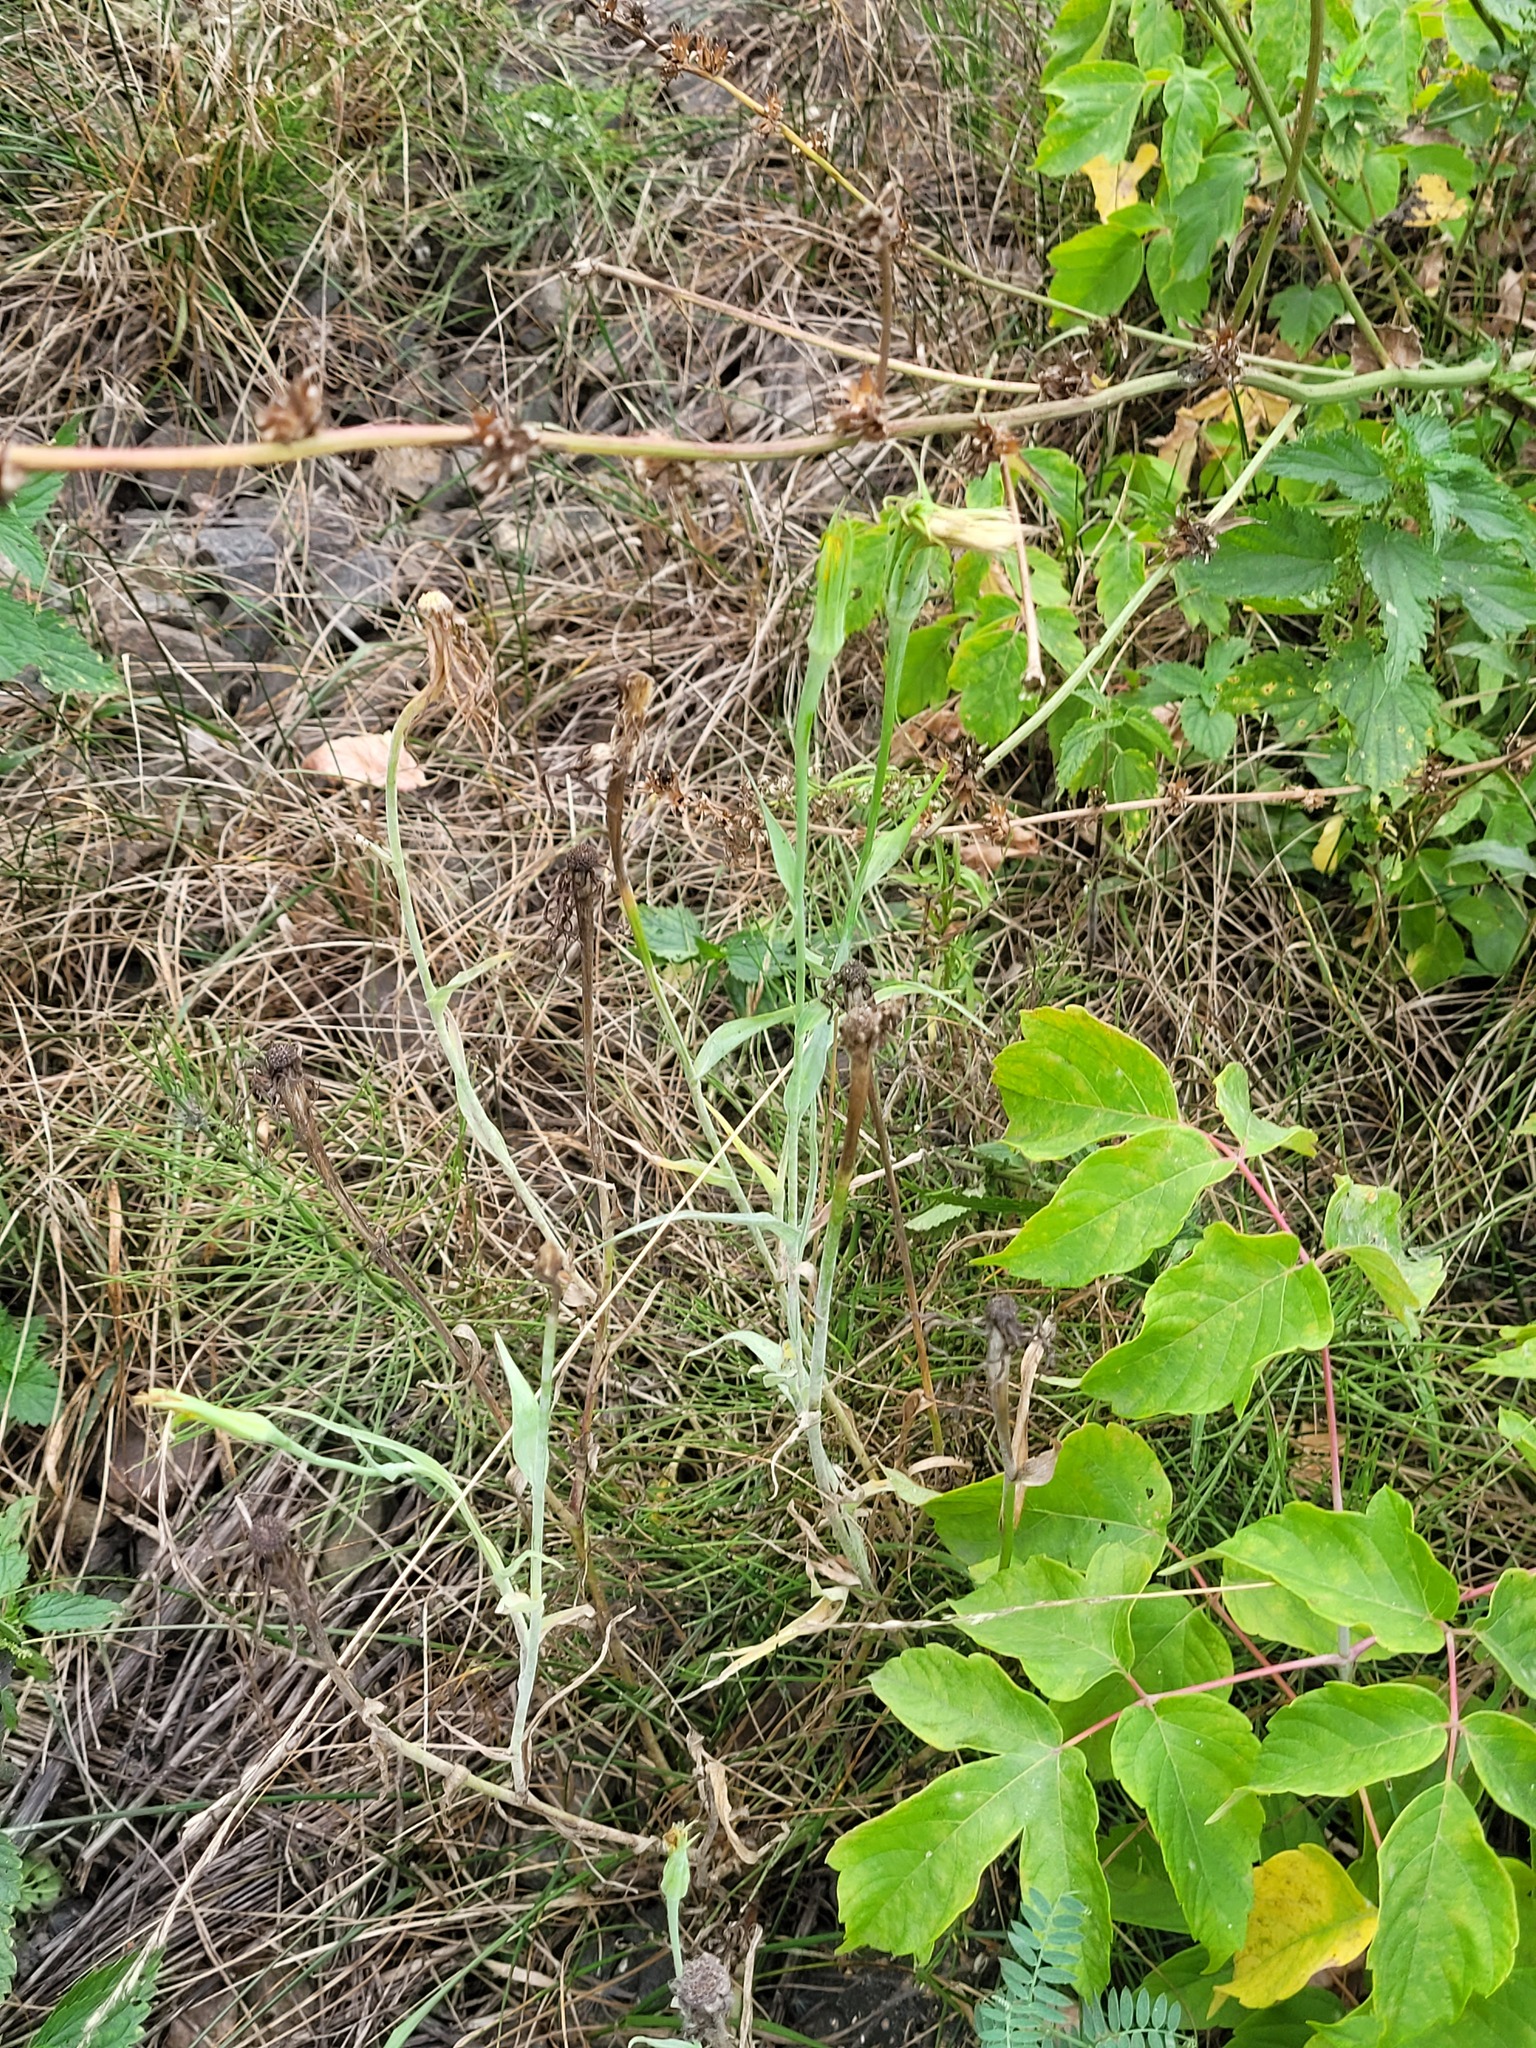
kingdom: Plantae
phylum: Tracheophyta
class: Magnoliopsida
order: Asterales
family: Asteraceae
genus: Tragopogon
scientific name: Tragopogon dubius
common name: Yellow salsify
